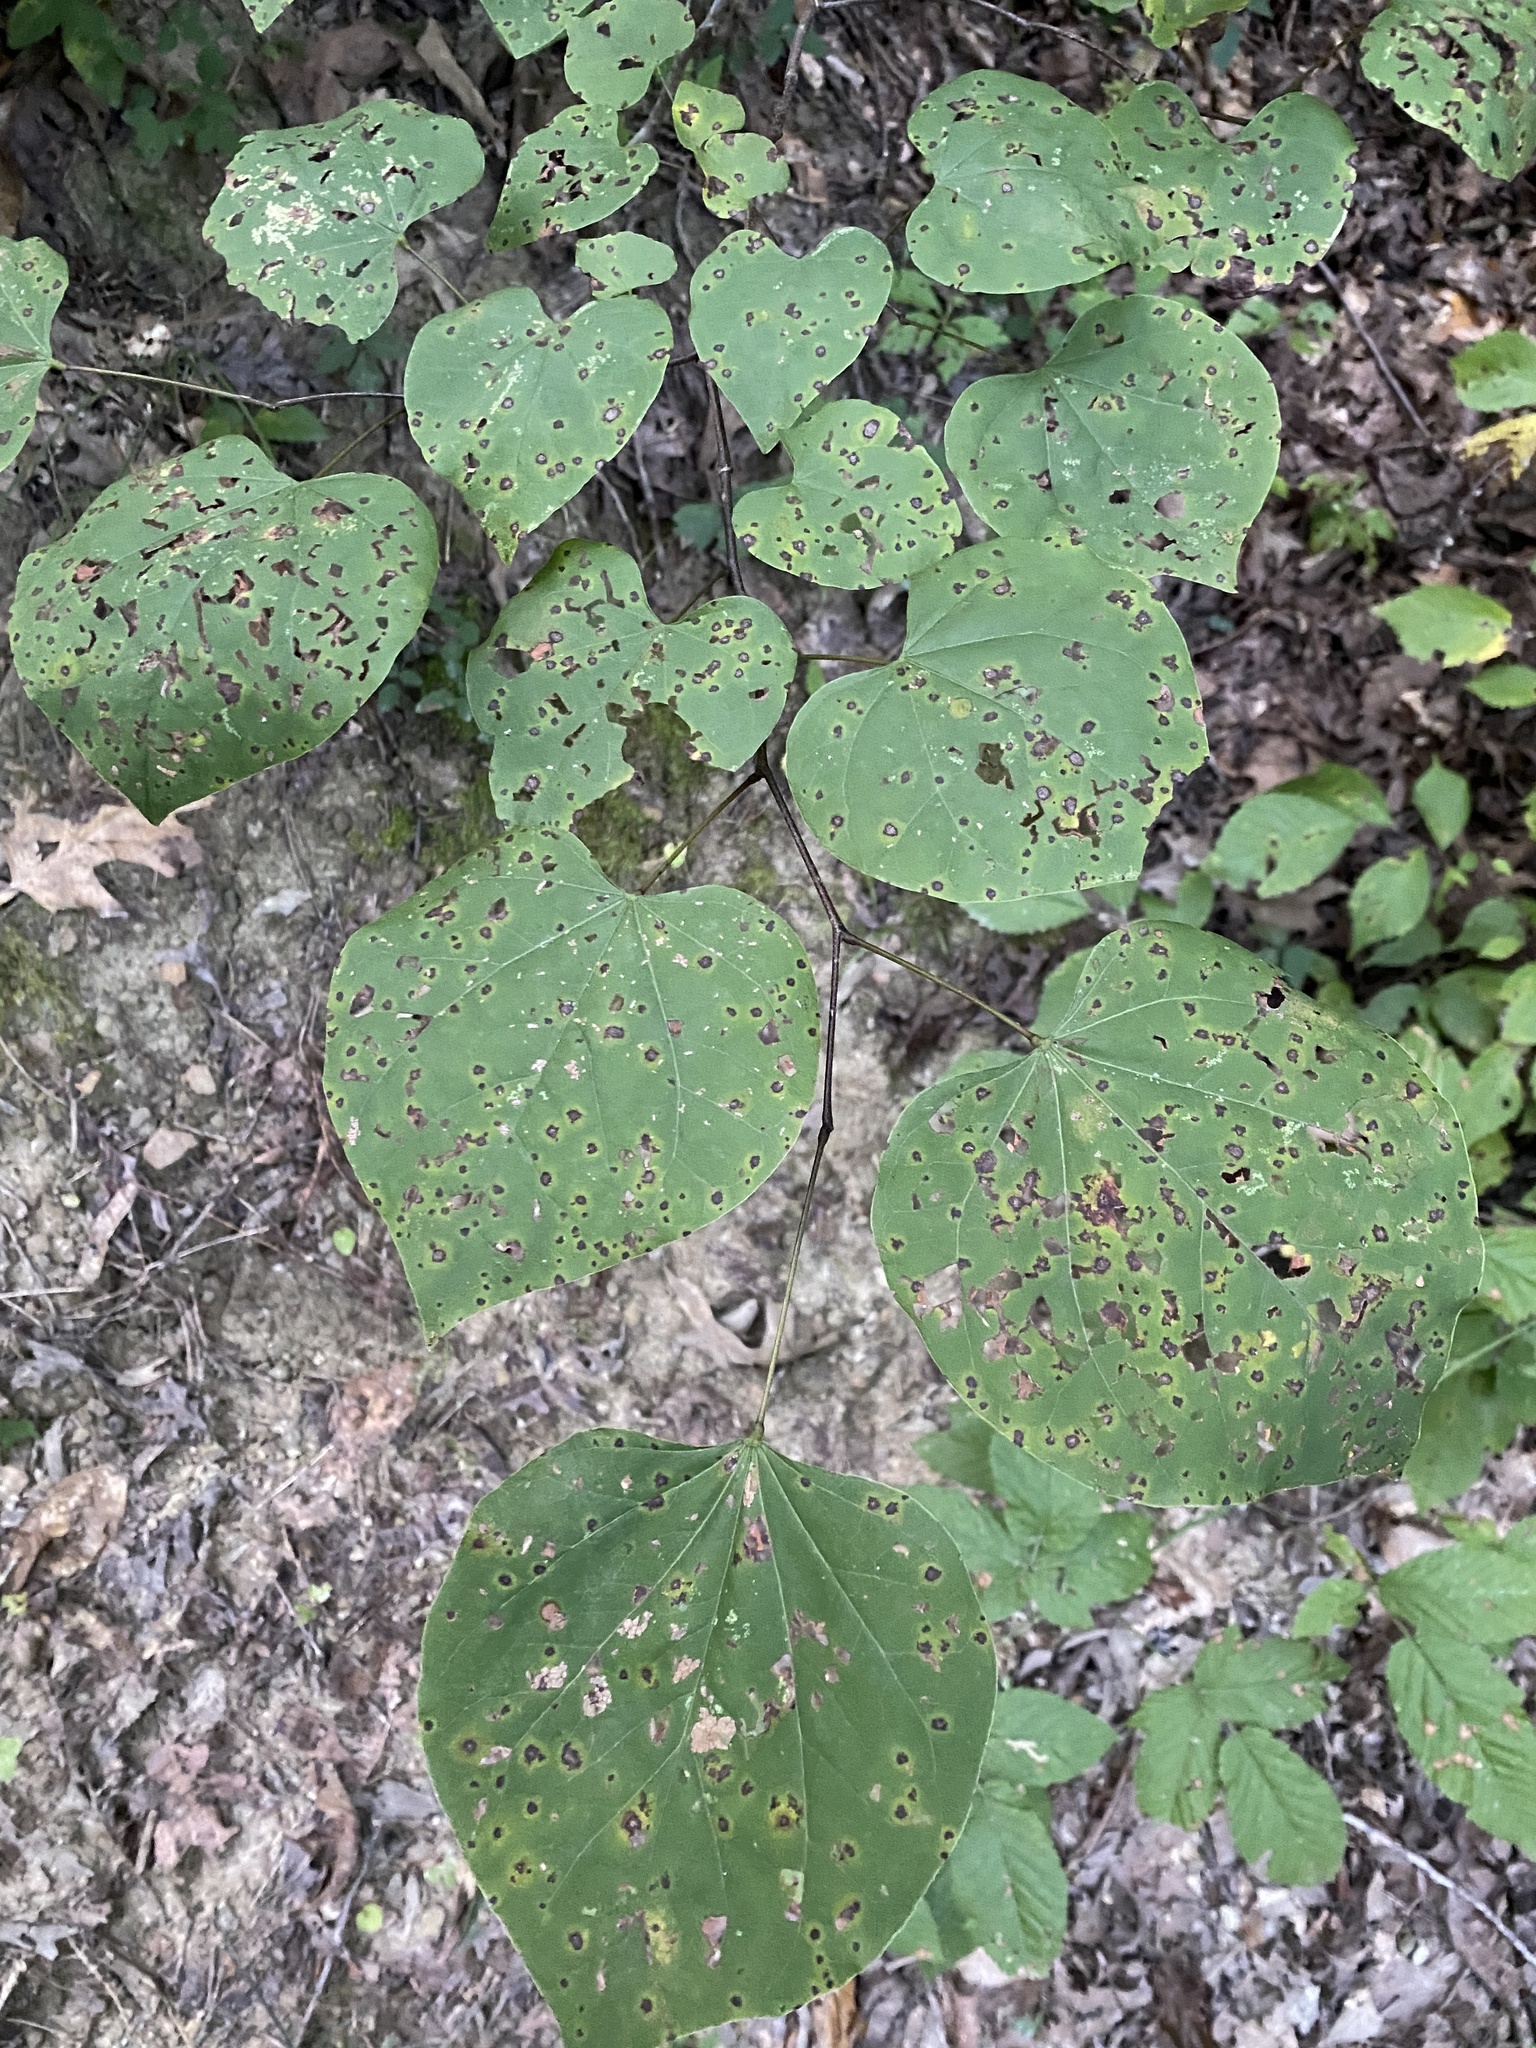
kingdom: Plantae
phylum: Tracheophyta
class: Magnoliopsida
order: Fabales
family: Fabaceae
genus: Cercis
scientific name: Cercis canadensis
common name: Eastern redbud
